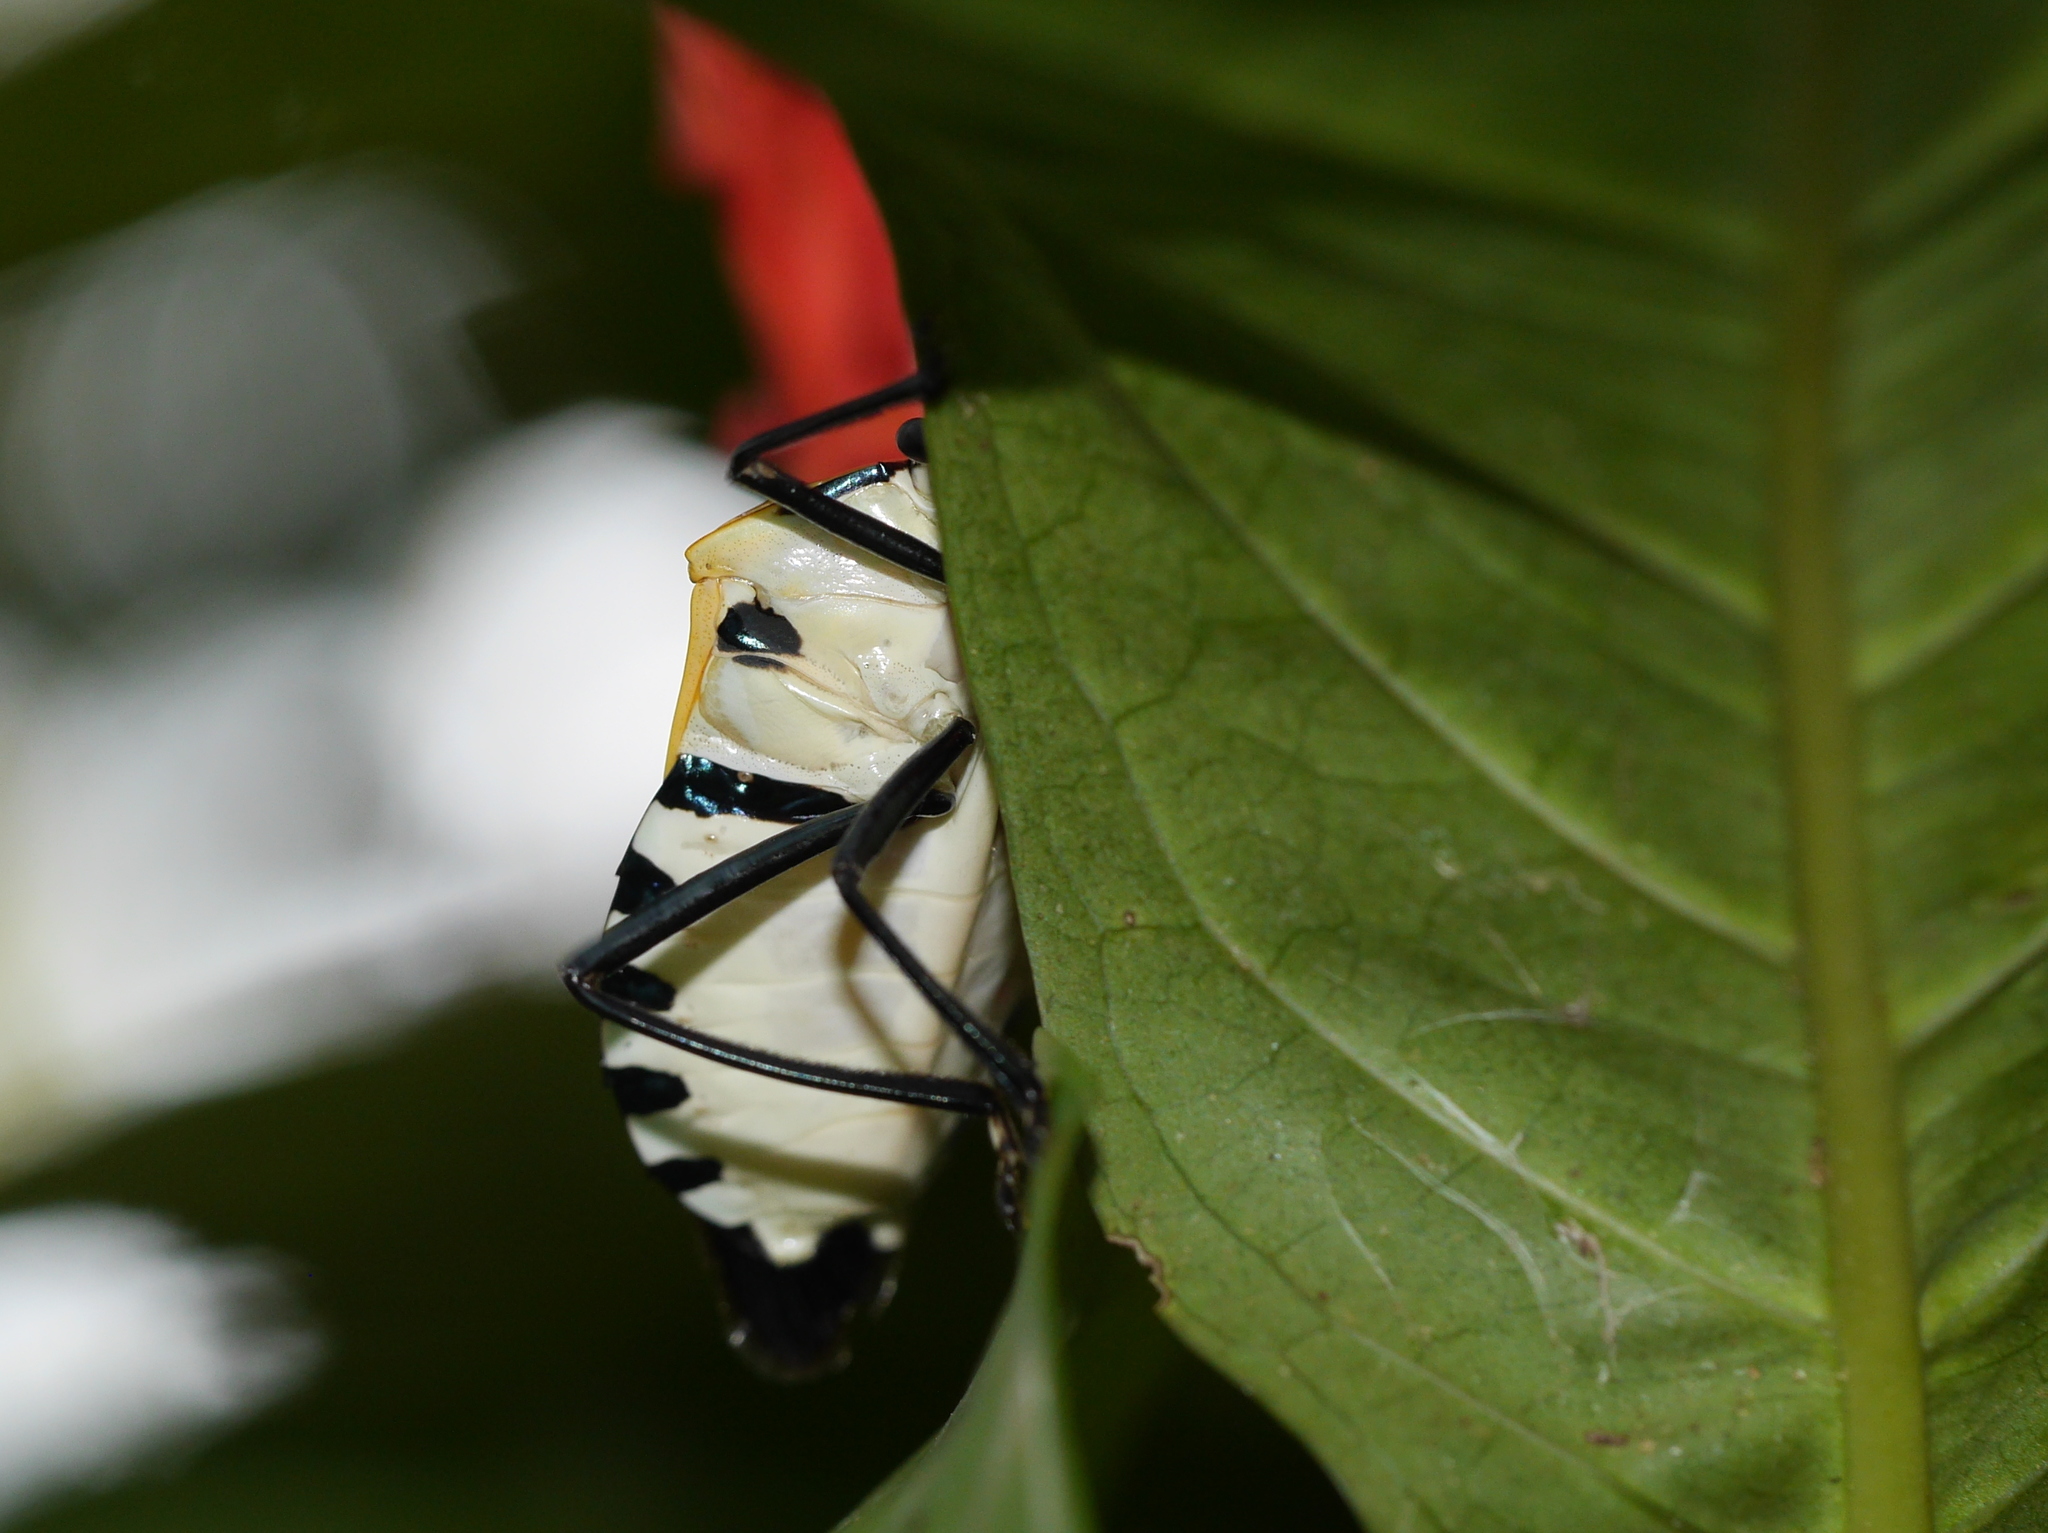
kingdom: Animalia
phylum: Arthropoda
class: Insecta
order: Hemiptera
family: Pentatomidae
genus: Catacanthus
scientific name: Catacanthus incarnatus
